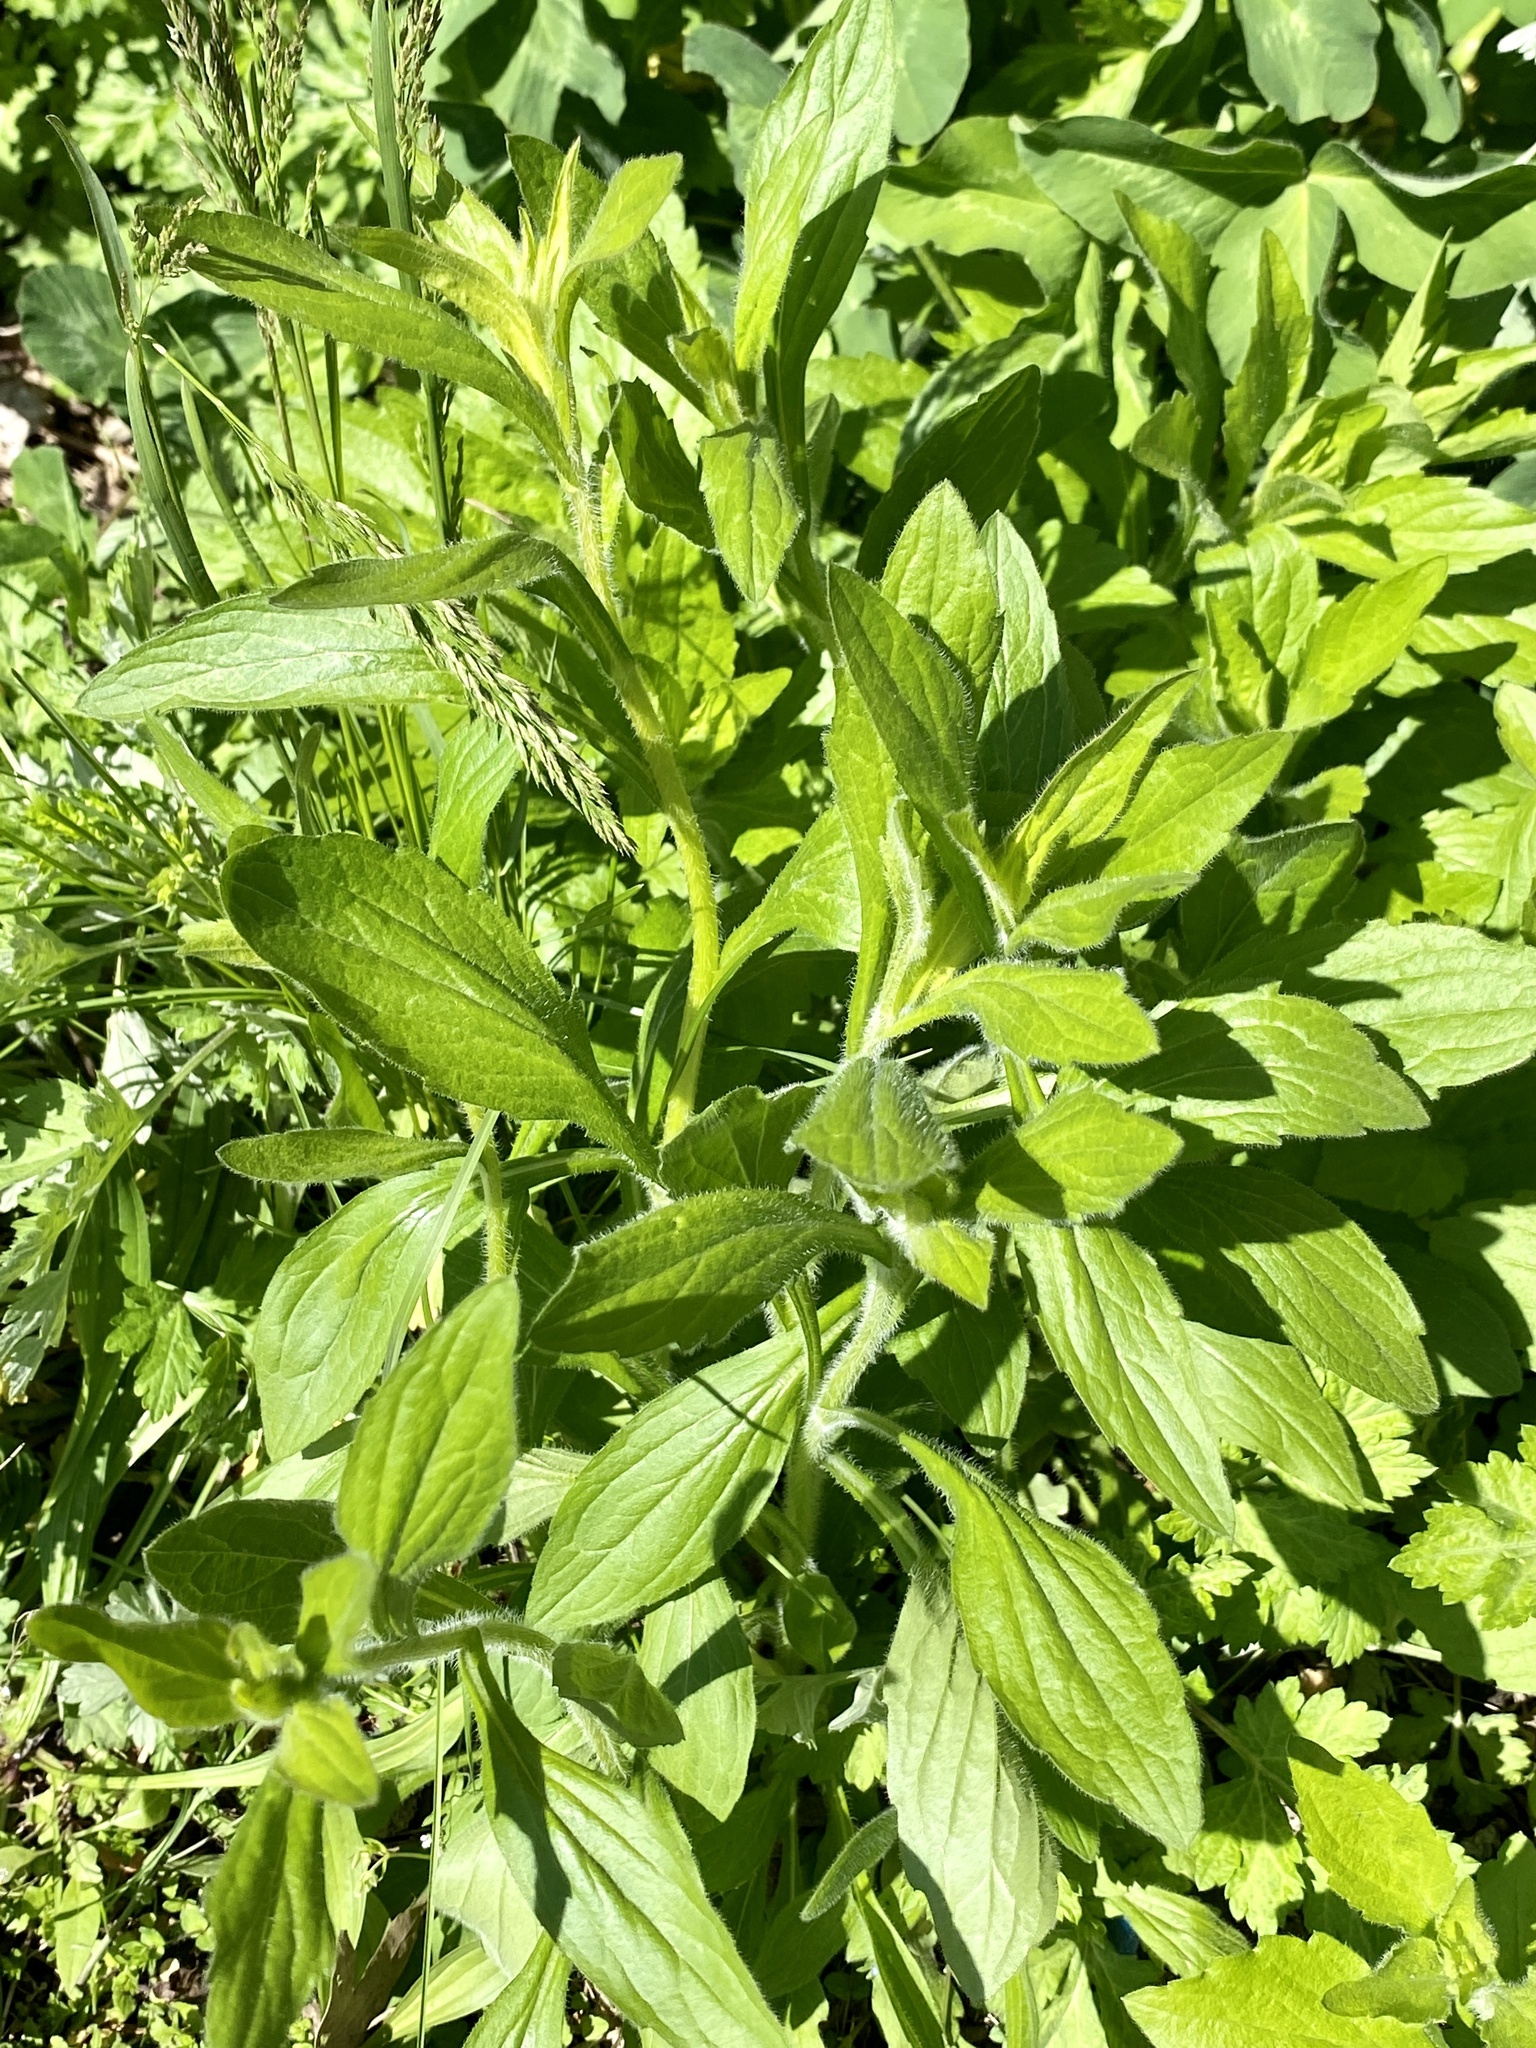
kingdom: Plantae
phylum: Tracheophyta
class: Magnoliopsida
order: Asterales
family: Asteraceae
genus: Erigeron
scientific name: Erigeron annuus
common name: Tall fleabane
